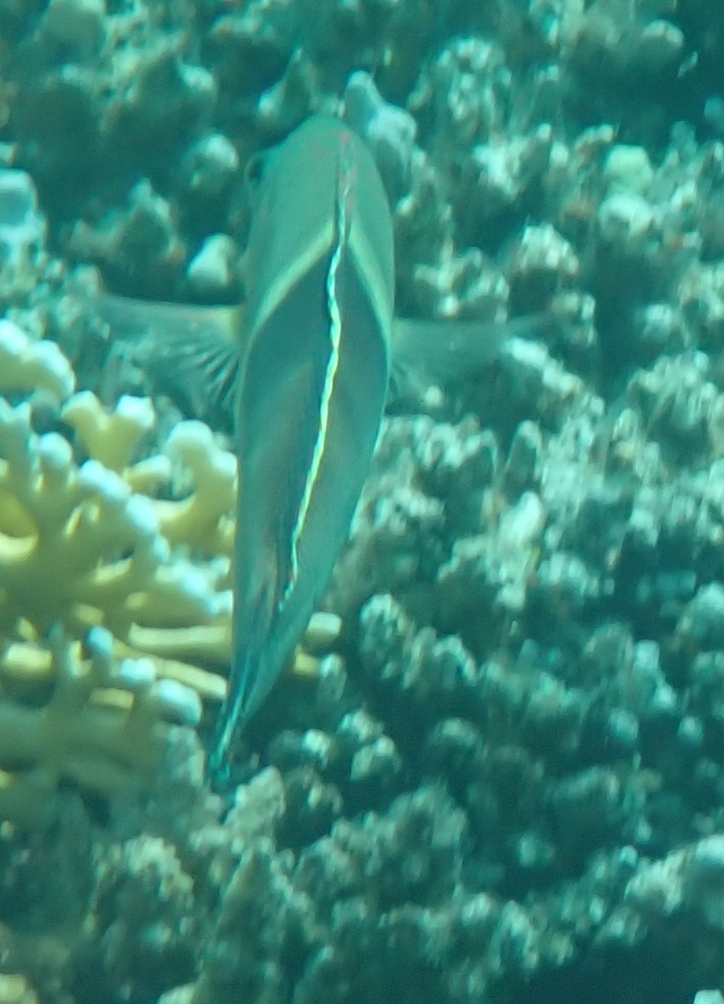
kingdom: Animalia
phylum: Chordata
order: Perciformes
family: Labridae
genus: Coris
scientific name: Coris aygula
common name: Clown coris
